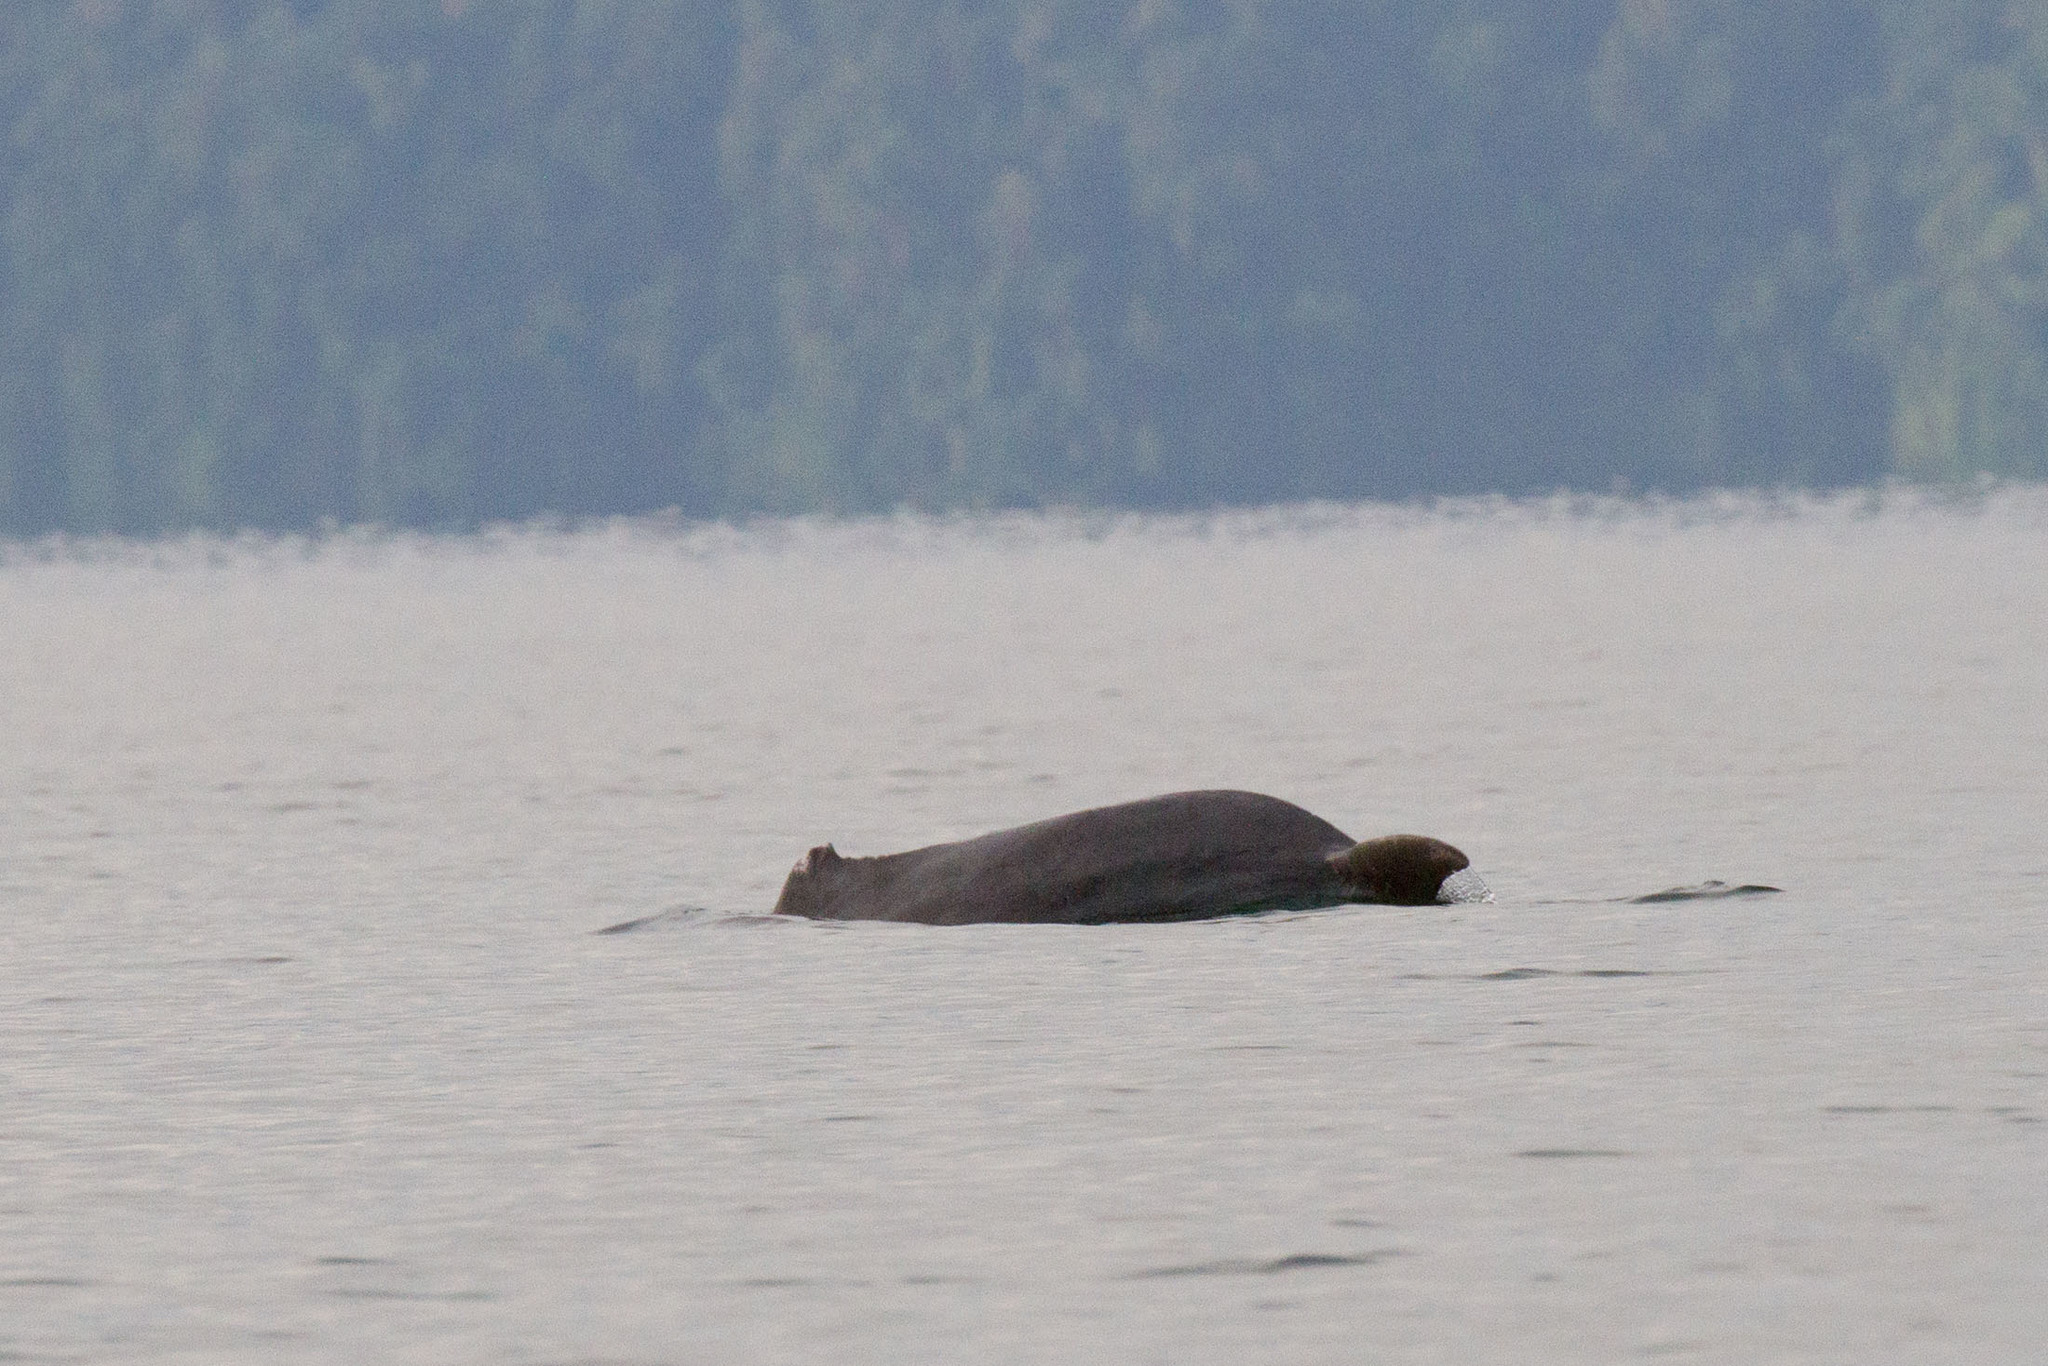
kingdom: Animalia
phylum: Chordata
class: Mammalia
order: Cetacea
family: Delphinidae
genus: Tursiops
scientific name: Tursiops aduncus
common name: Indo-pacific bottlenose dolphin
